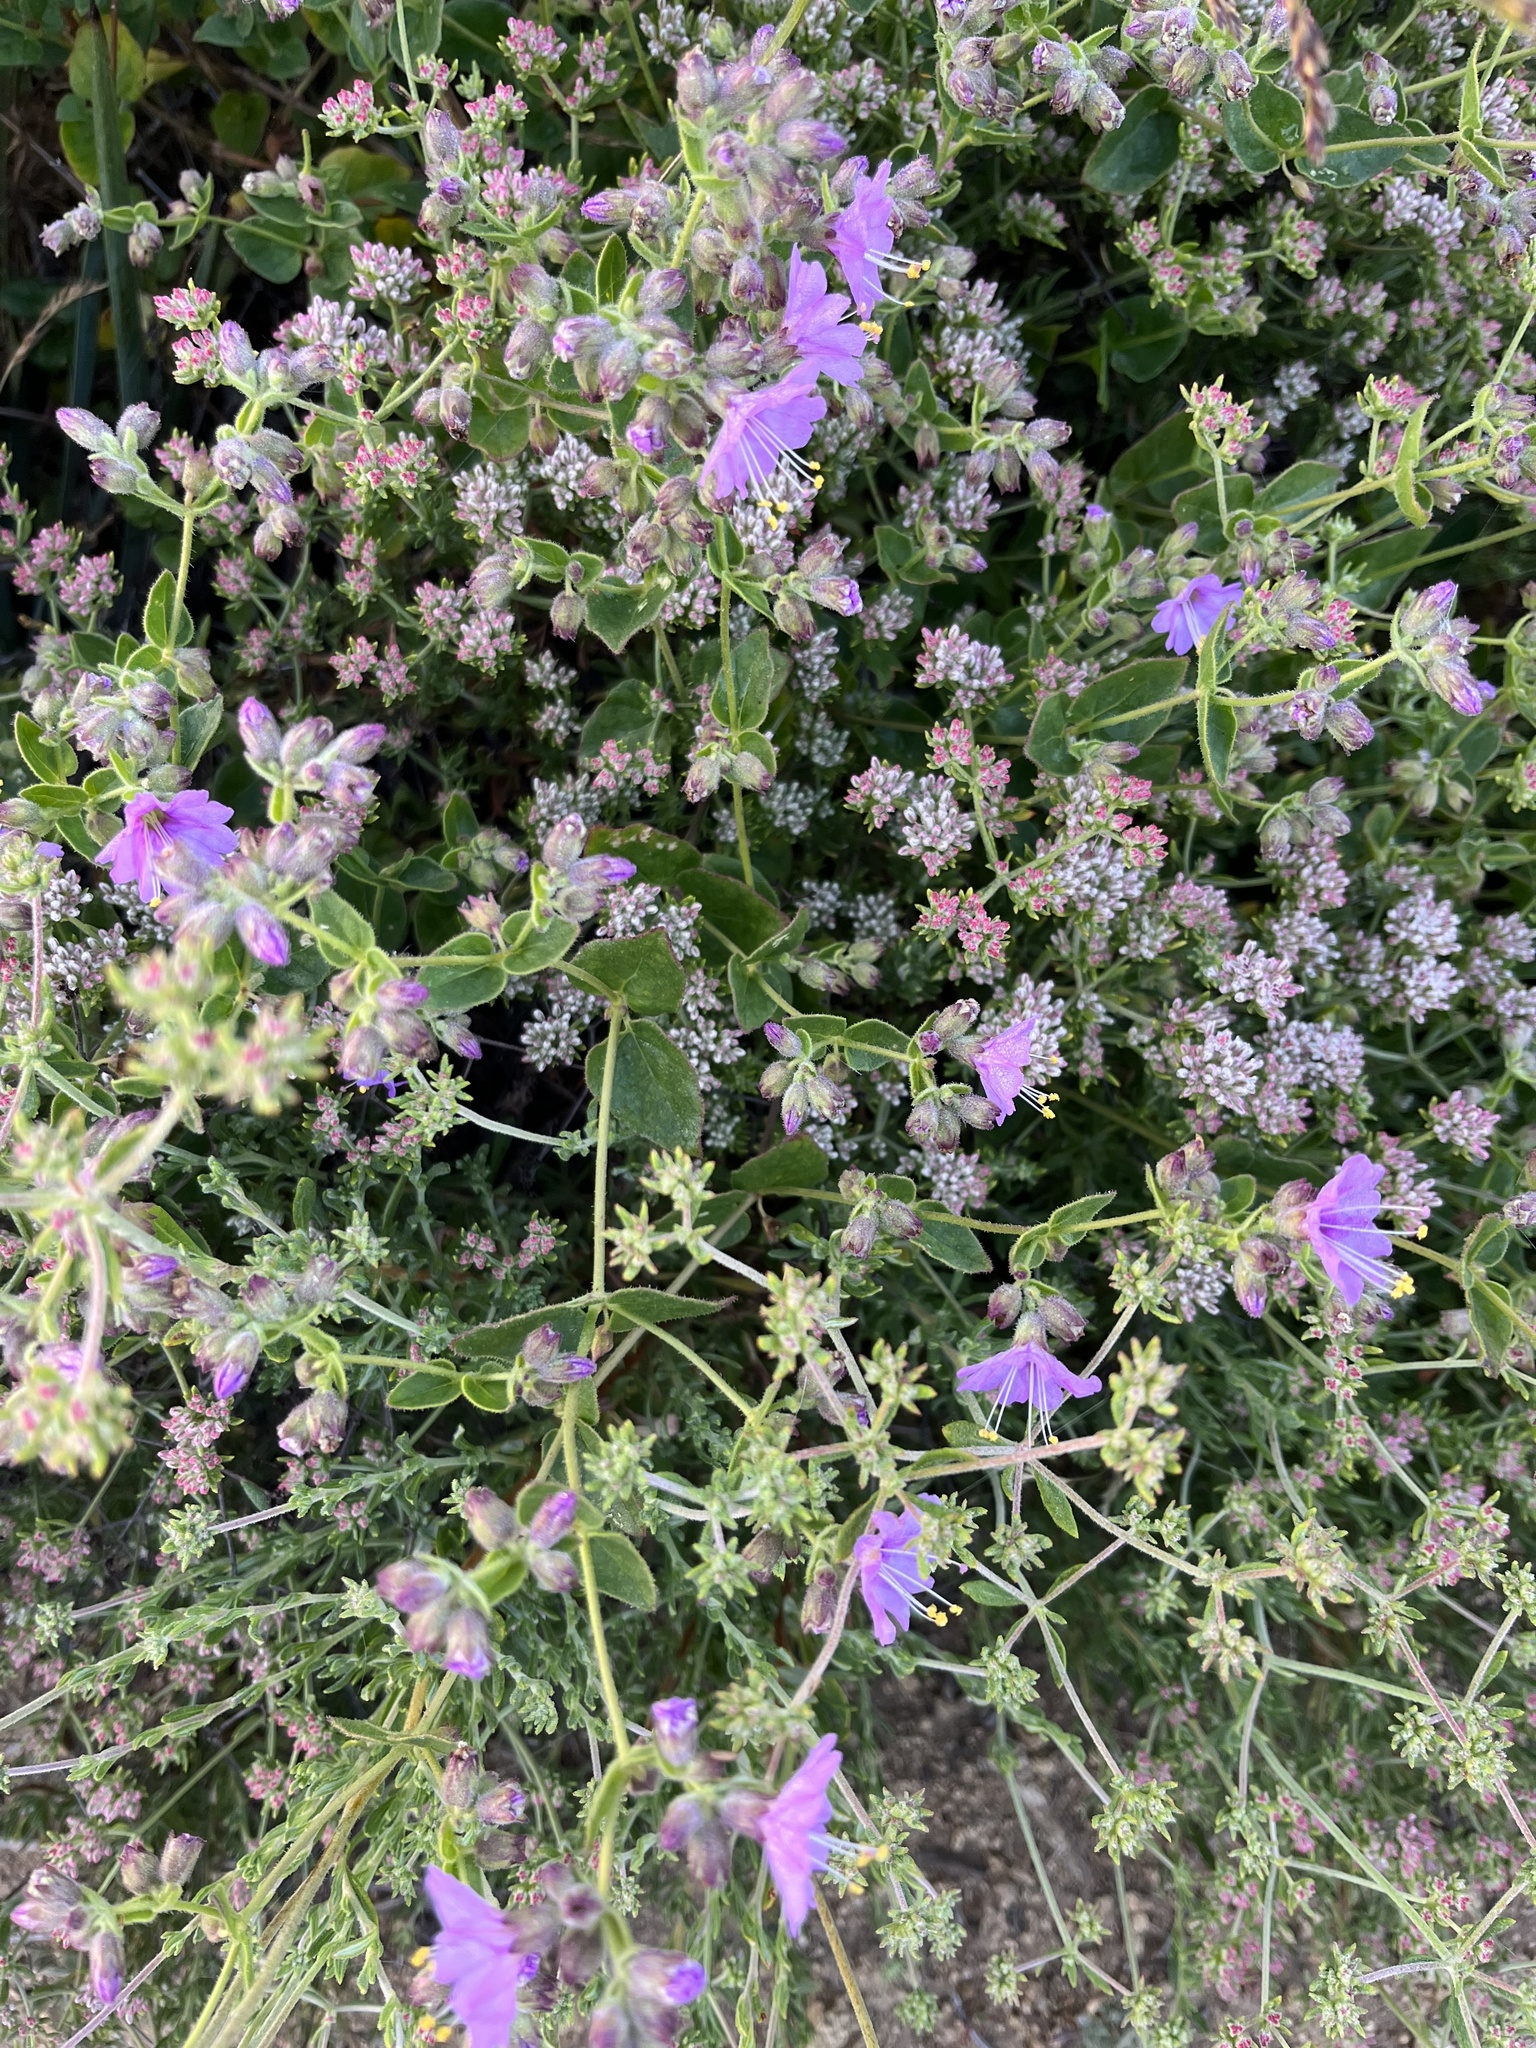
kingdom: Plantae
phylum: Tracheophyta
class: Magnoliopsida
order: Caryophyllales
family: Nyctaginaceae
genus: Mirabilis
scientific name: Mirabilis laevis
